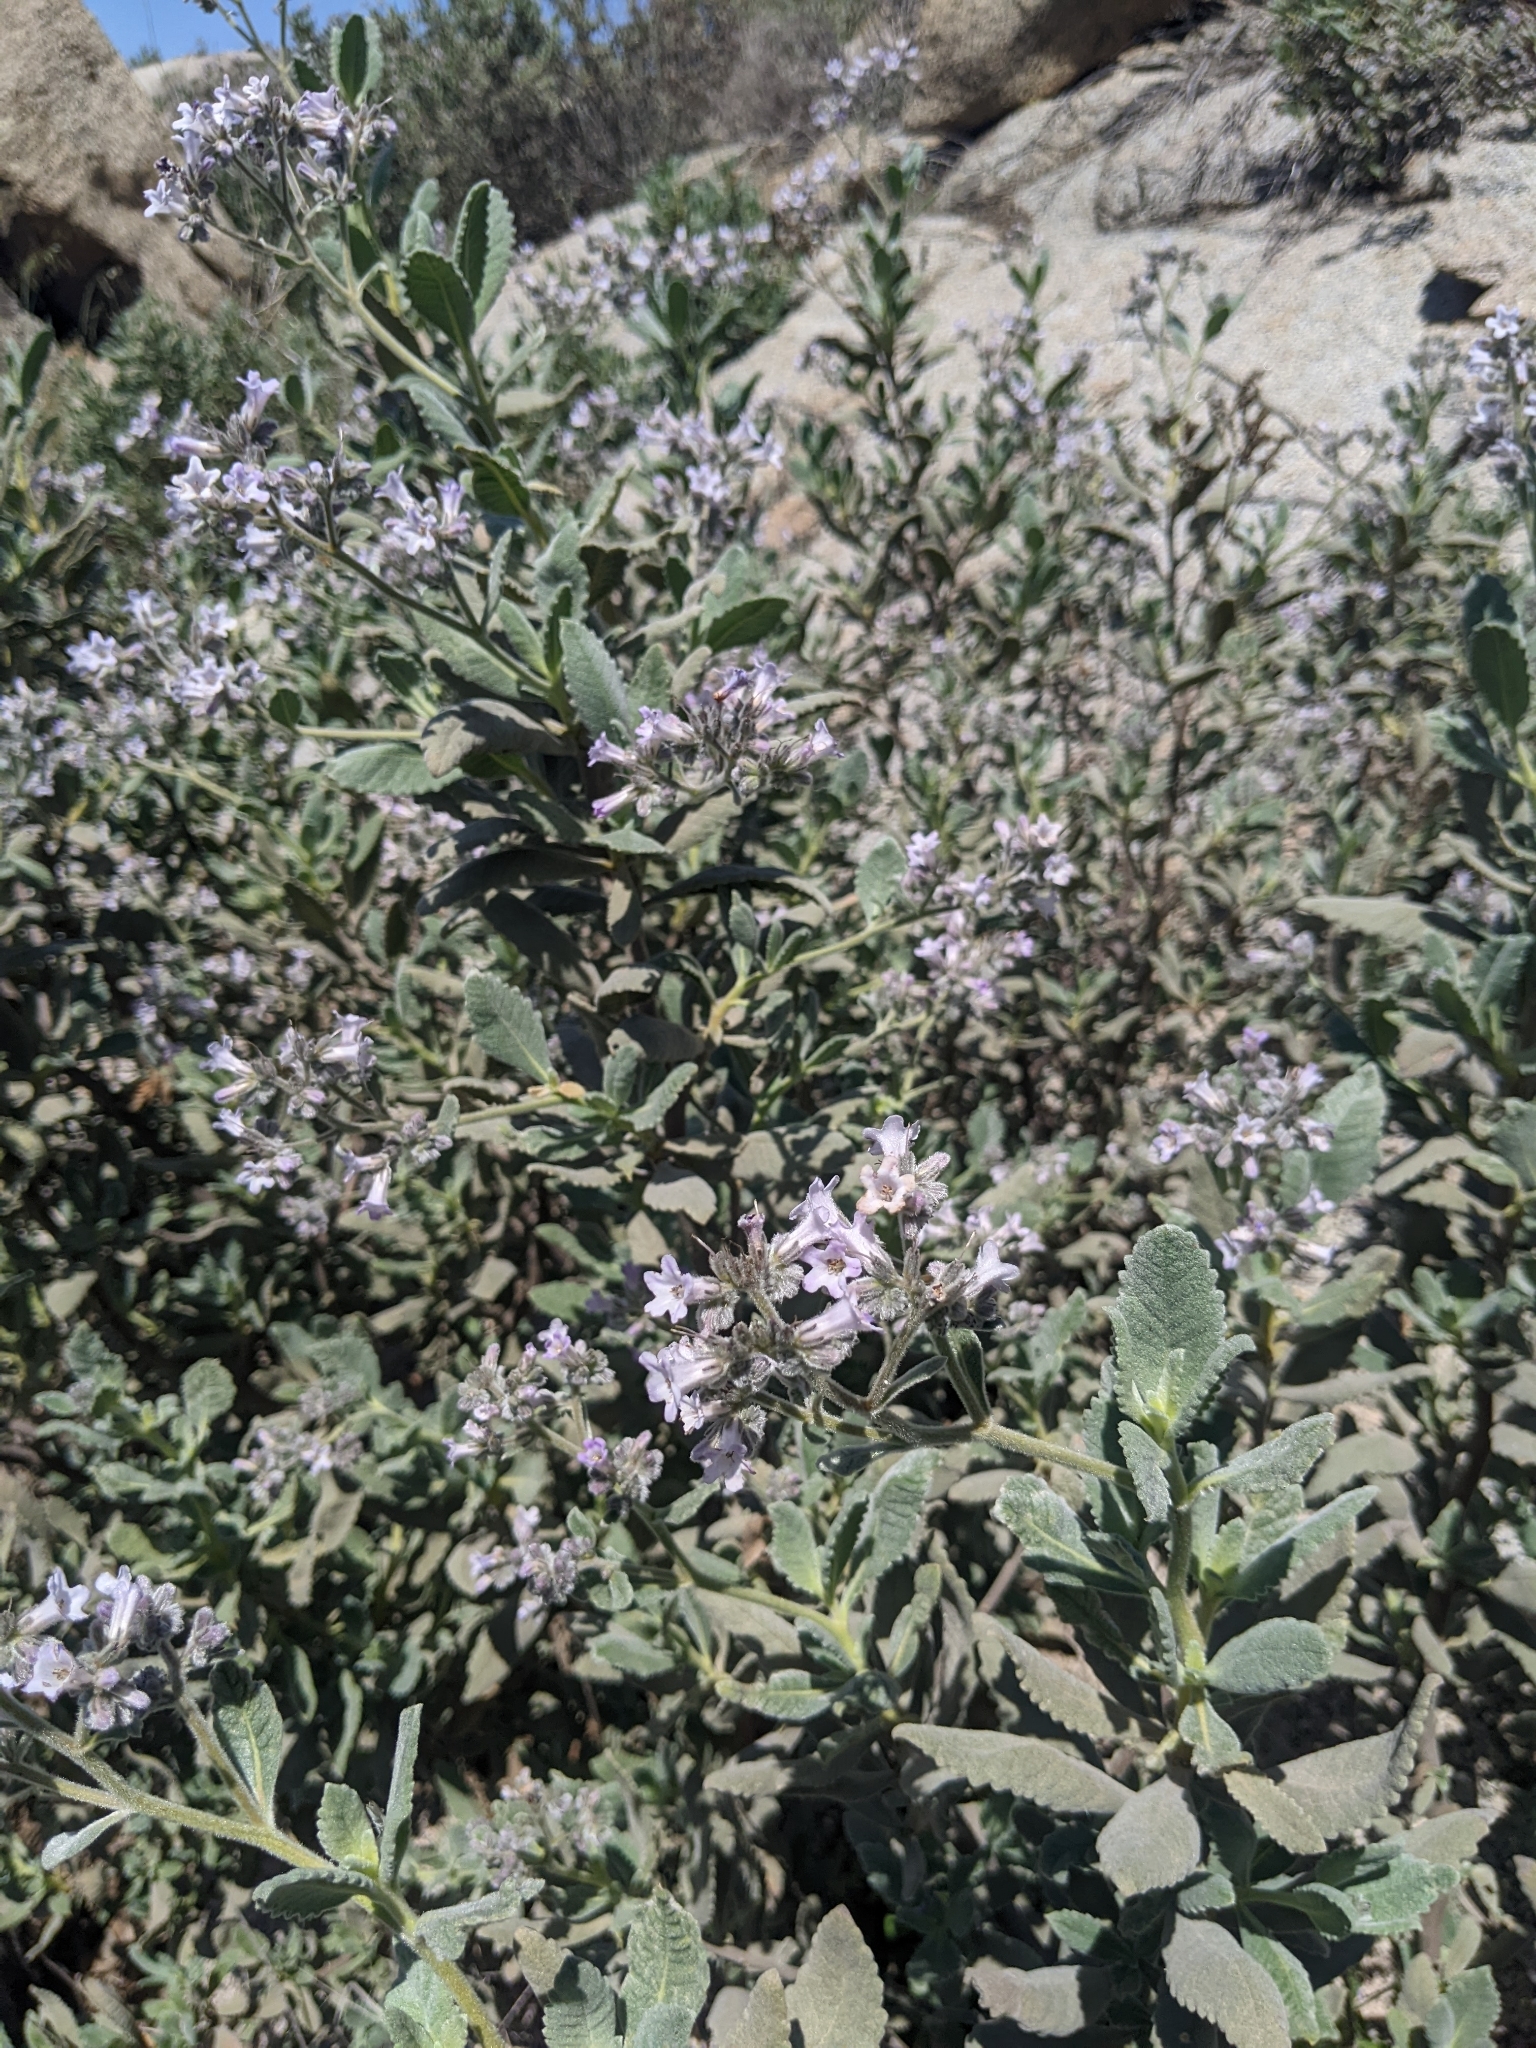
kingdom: Plantae
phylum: Tracheophyta
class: Magnoliopsida
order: Boraginales
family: Namaceae
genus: Eriodictyon
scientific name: Eriodictyon crassifolium
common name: Thick-leaf yerba-santa
